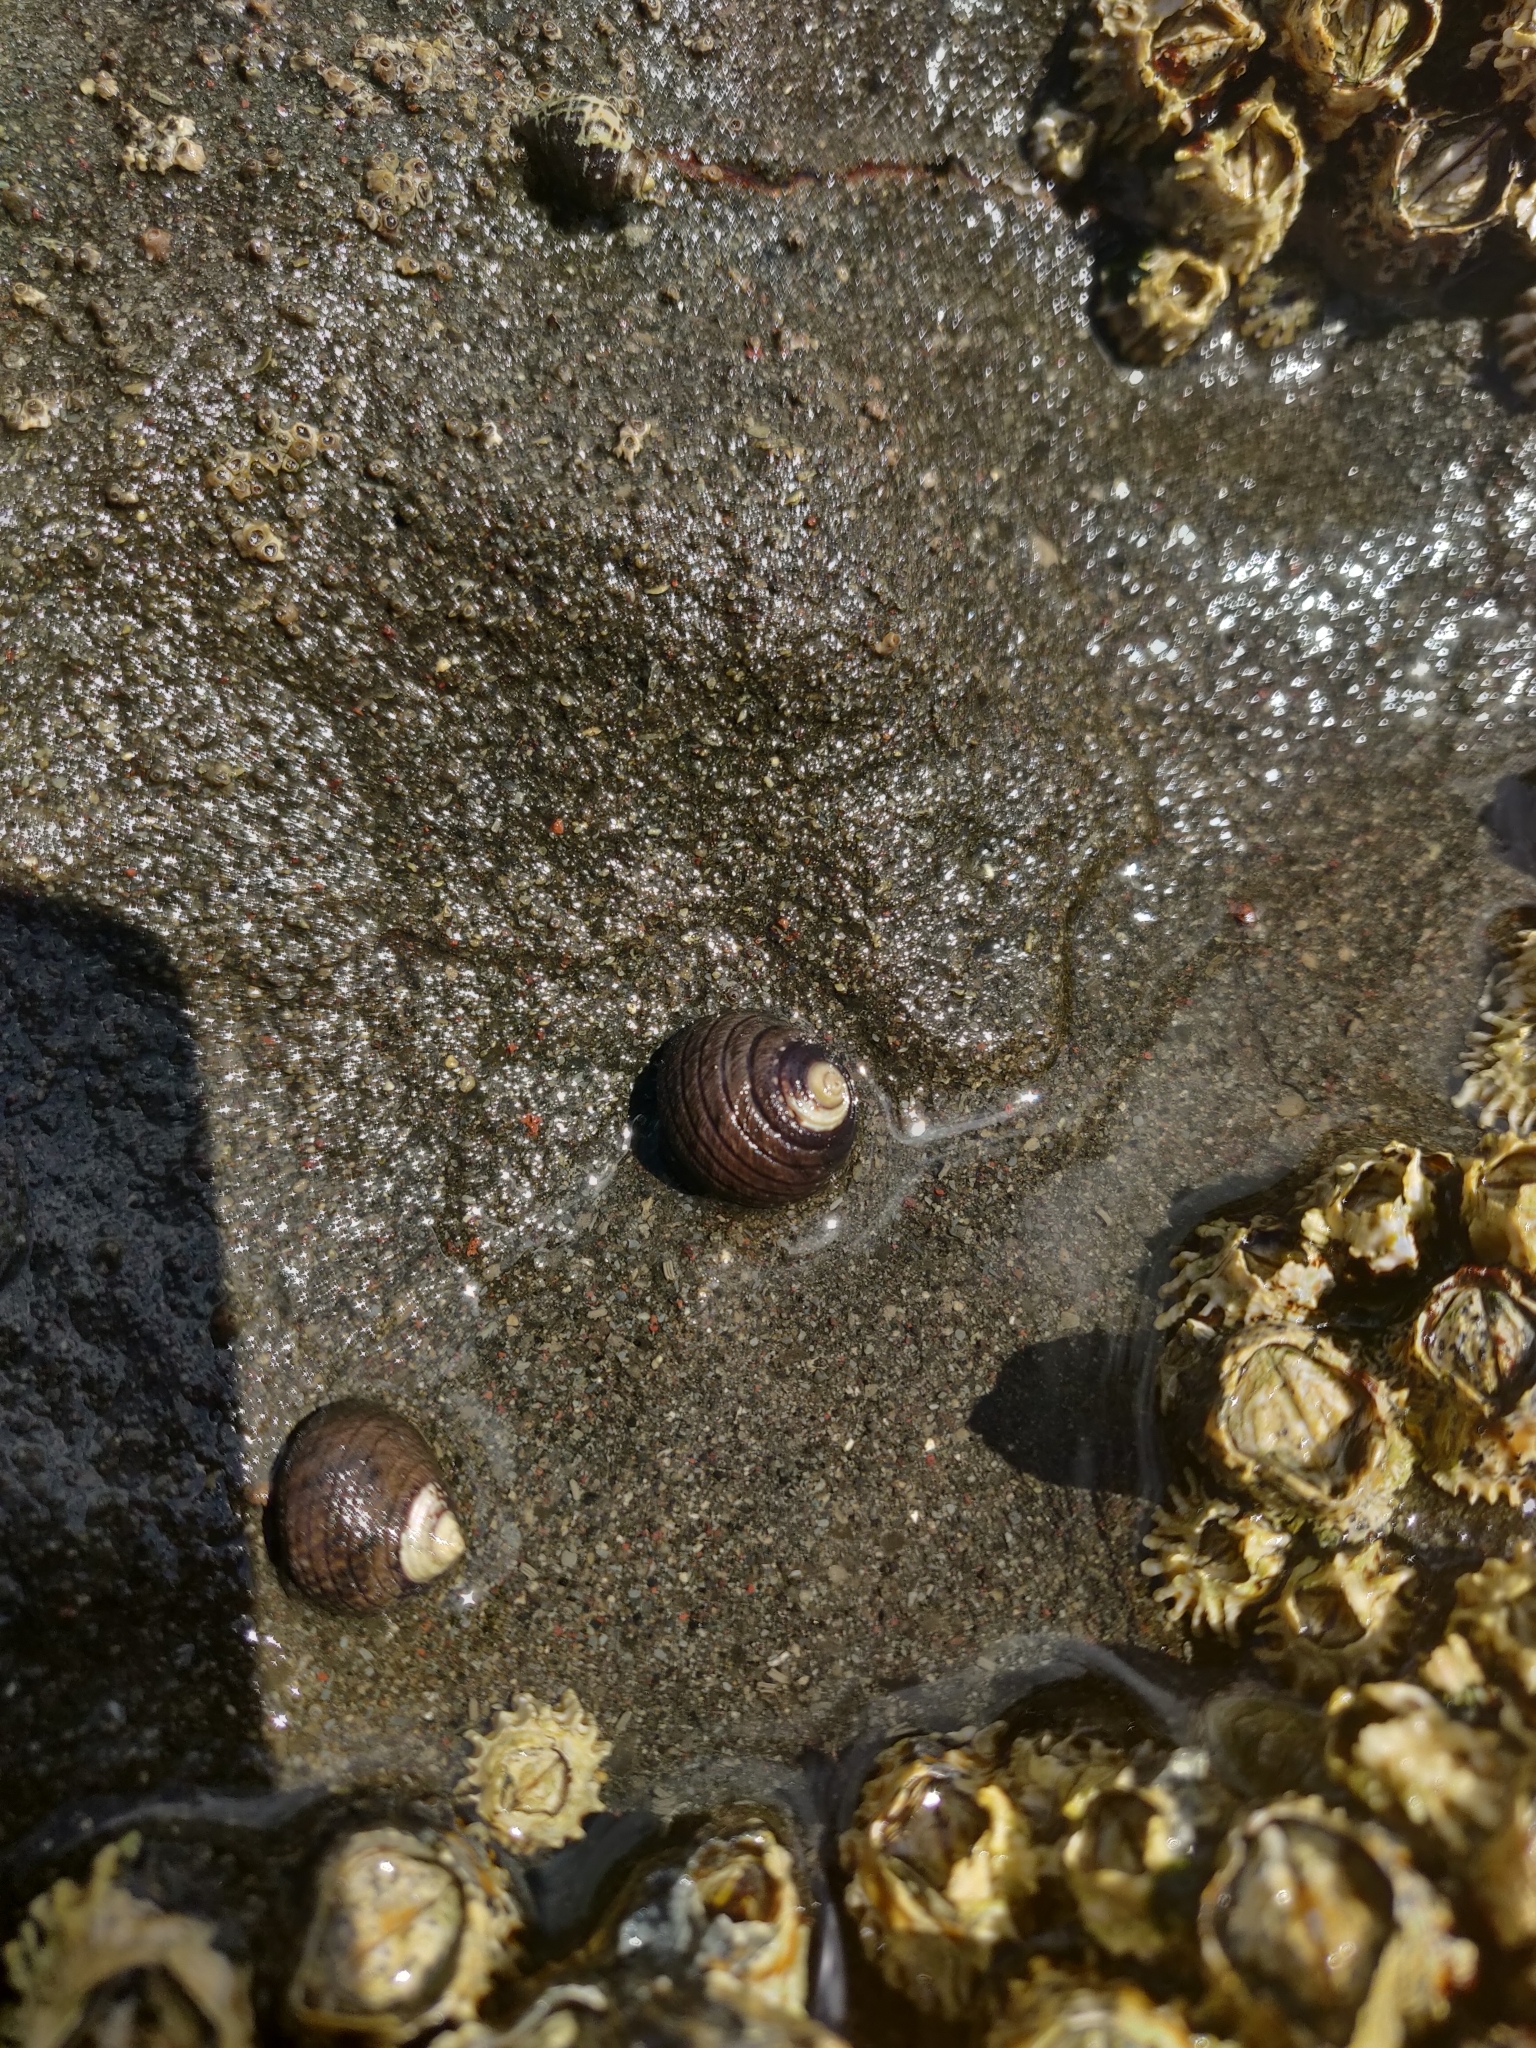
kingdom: Animalia
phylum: Mollusca
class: Gastropoda
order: Trochida
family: Trochidae
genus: Diloma
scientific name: Diloma aethiops
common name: Scorched monodont
